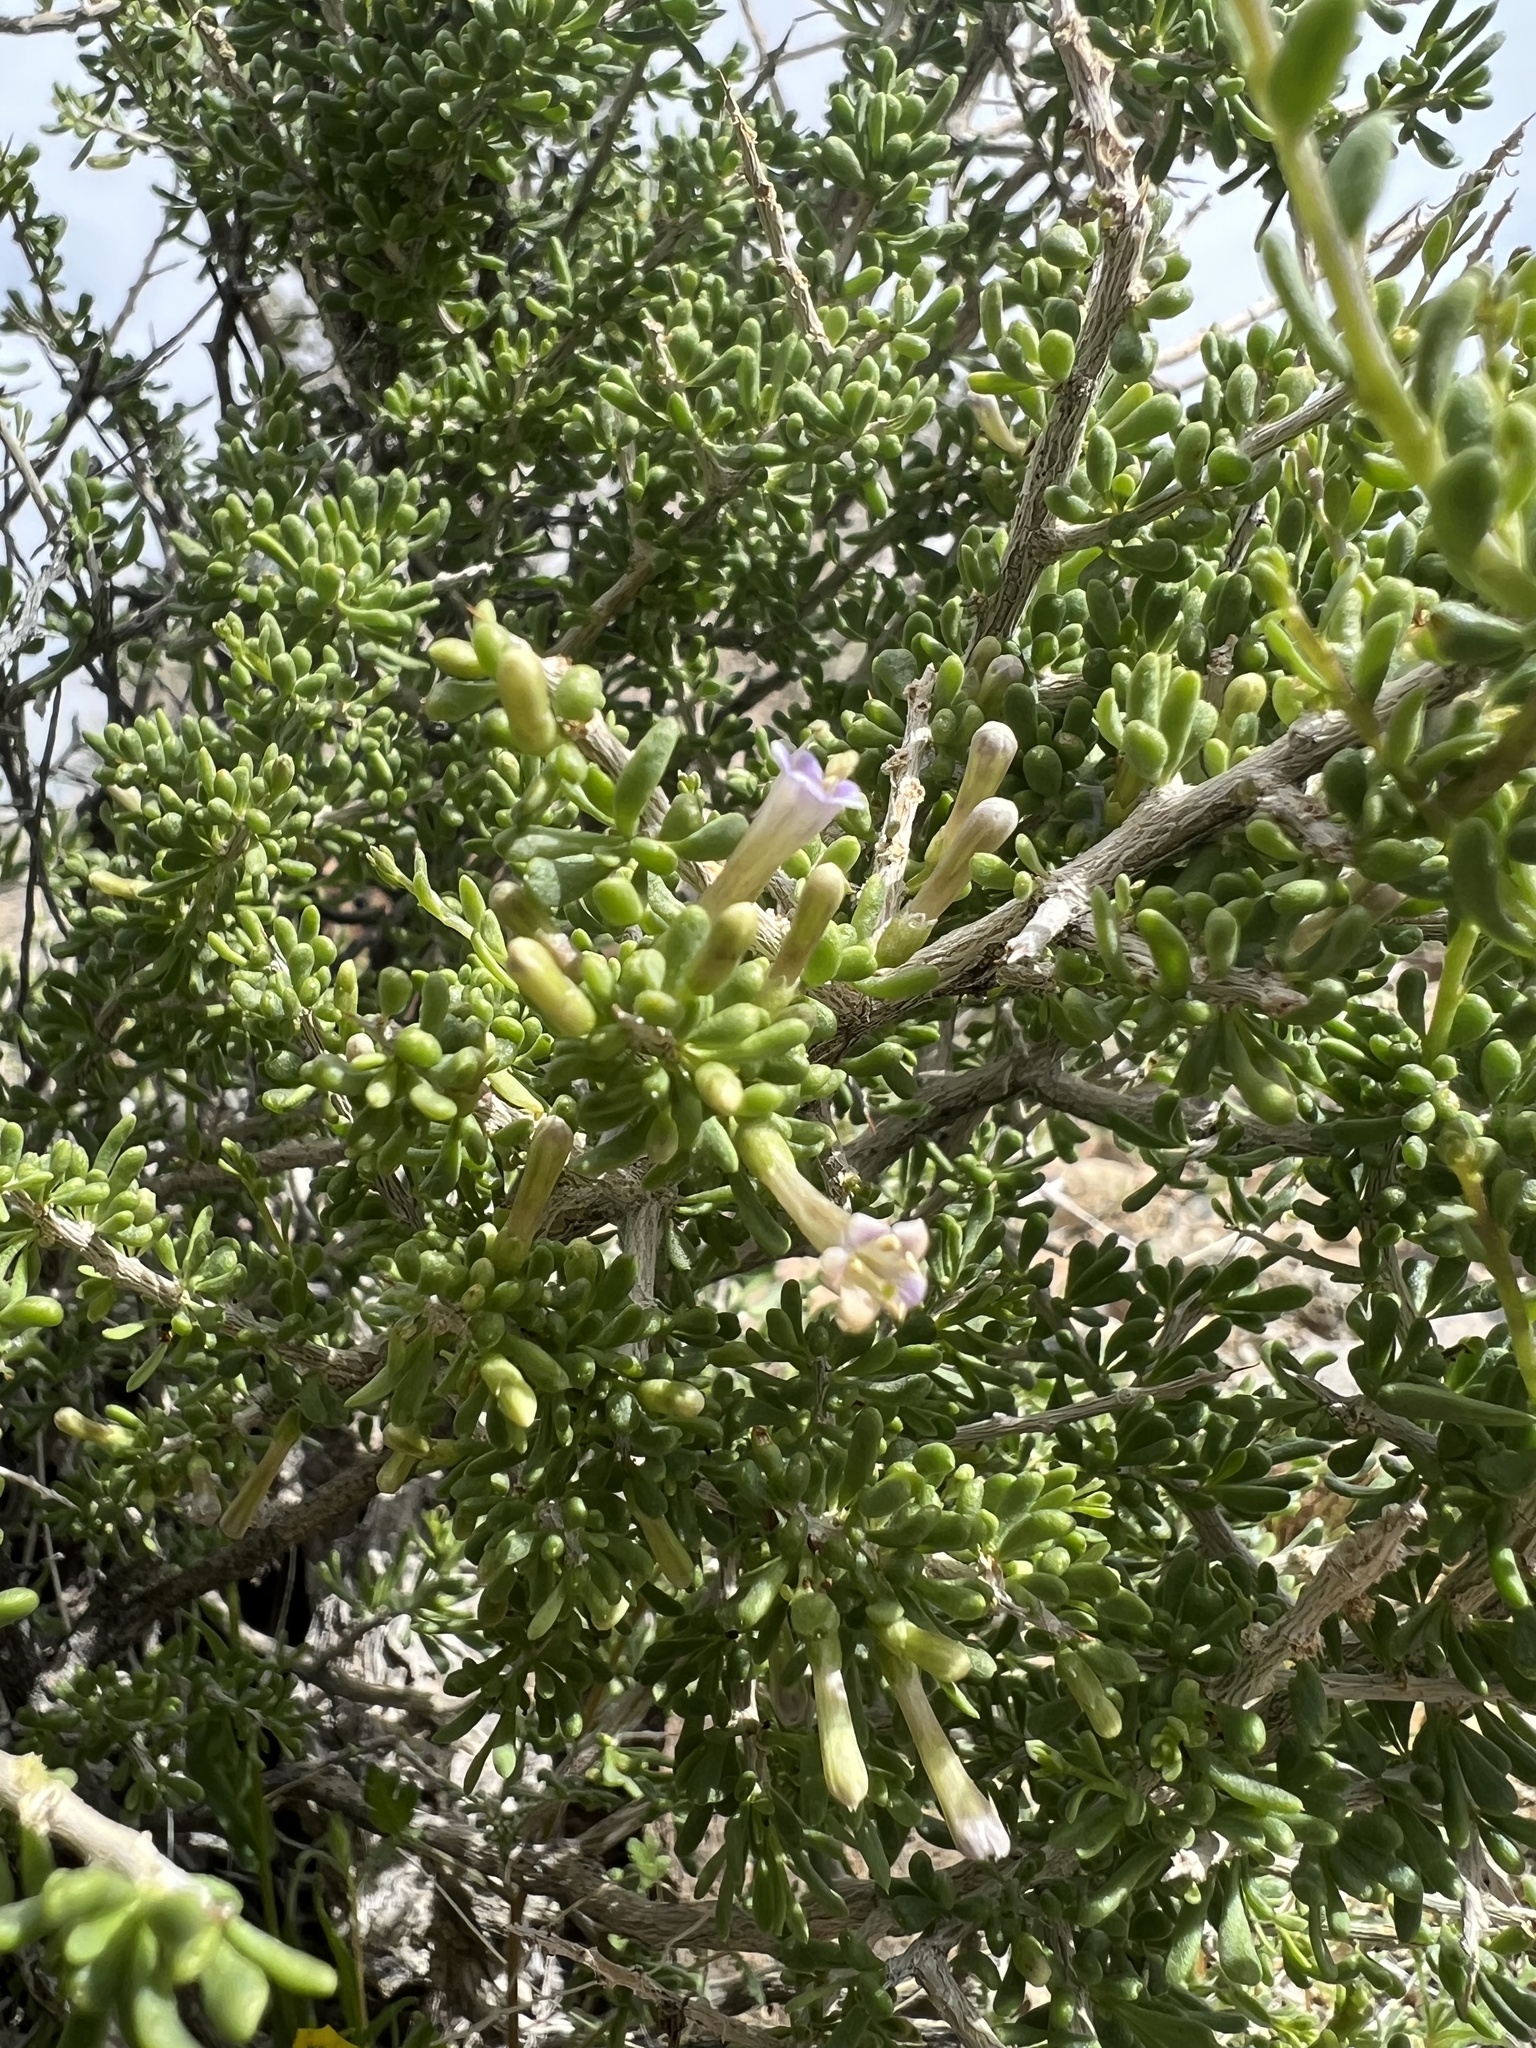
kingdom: Plantae
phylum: Tracheophyta
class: Magnoliopsida
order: Solanales
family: Solanaceae
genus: Lycium
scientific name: Lycium andersonii
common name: Water-jacket
